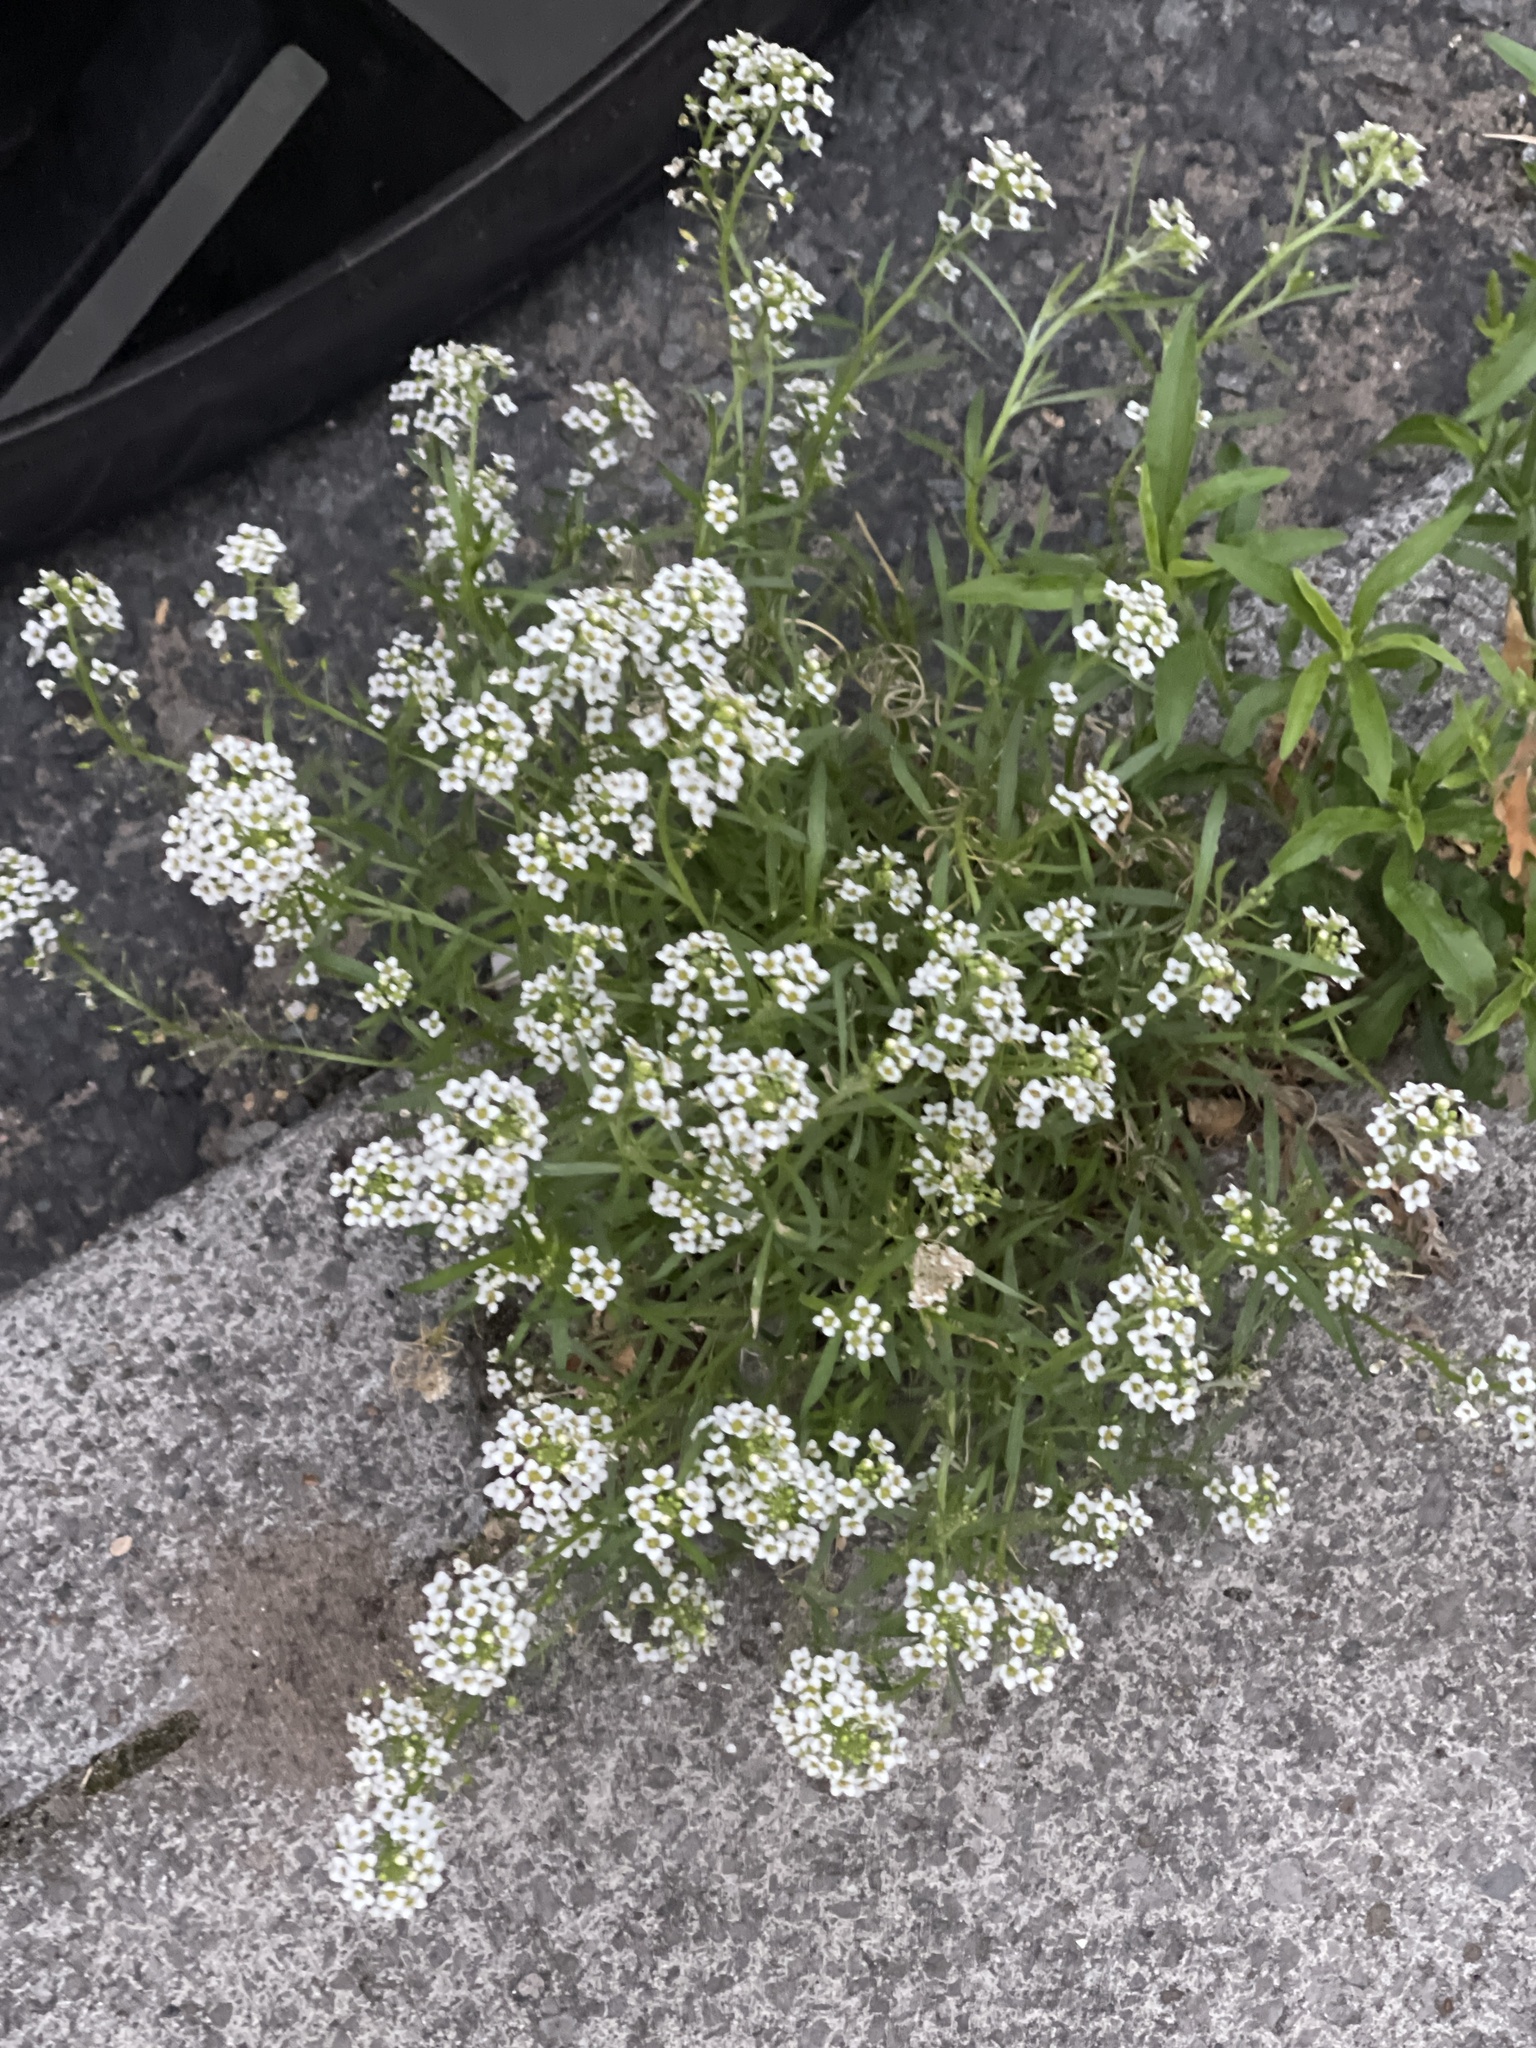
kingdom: Plantae
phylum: Tracheophyta
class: Magnoliopsida
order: Brassicales
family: Brassicaceae
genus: Lobularia
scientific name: Lobularia maritima
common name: Sweet alison
